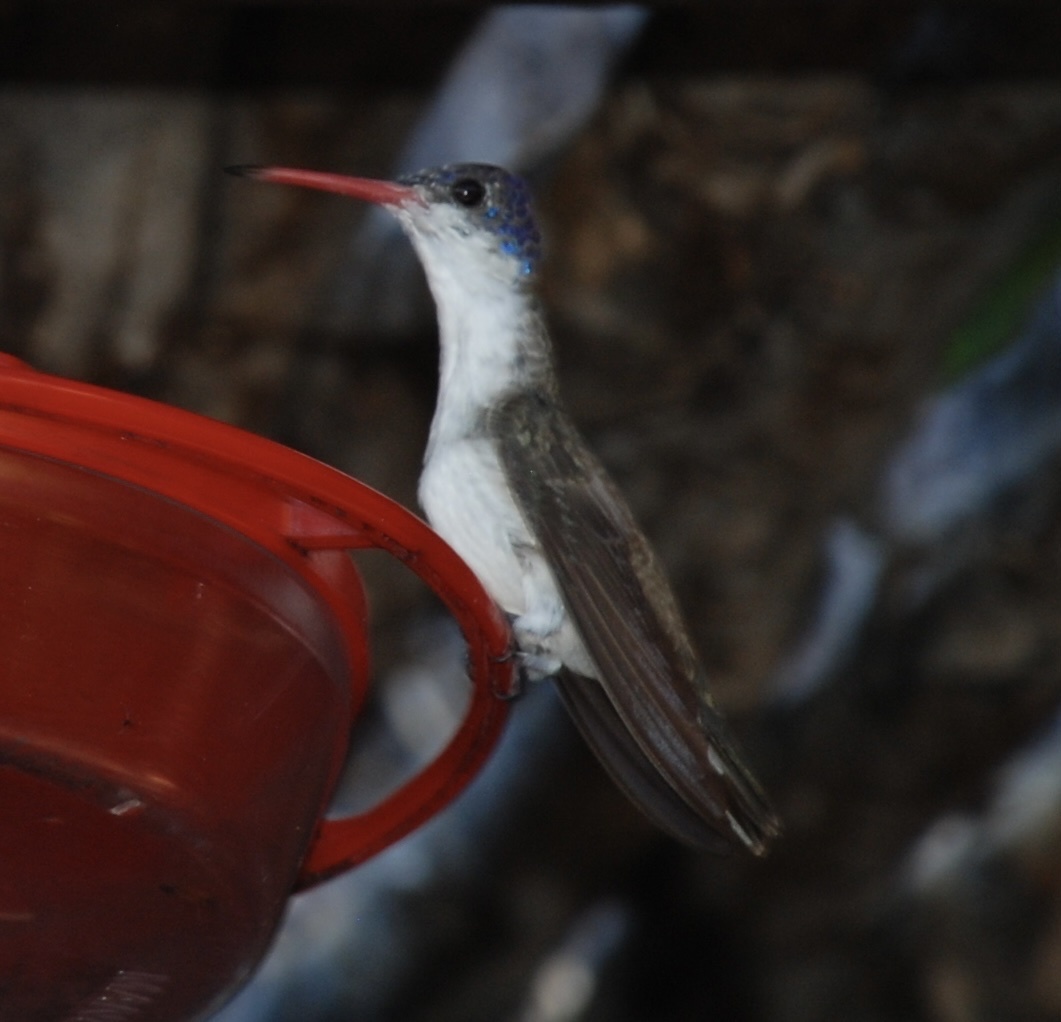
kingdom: Animalia
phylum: Chordata
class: Aves
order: Apodiformes
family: Trochilidae
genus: Leucolia
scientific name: Leucolia violiceps
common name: Violet-crowned hummingbird
